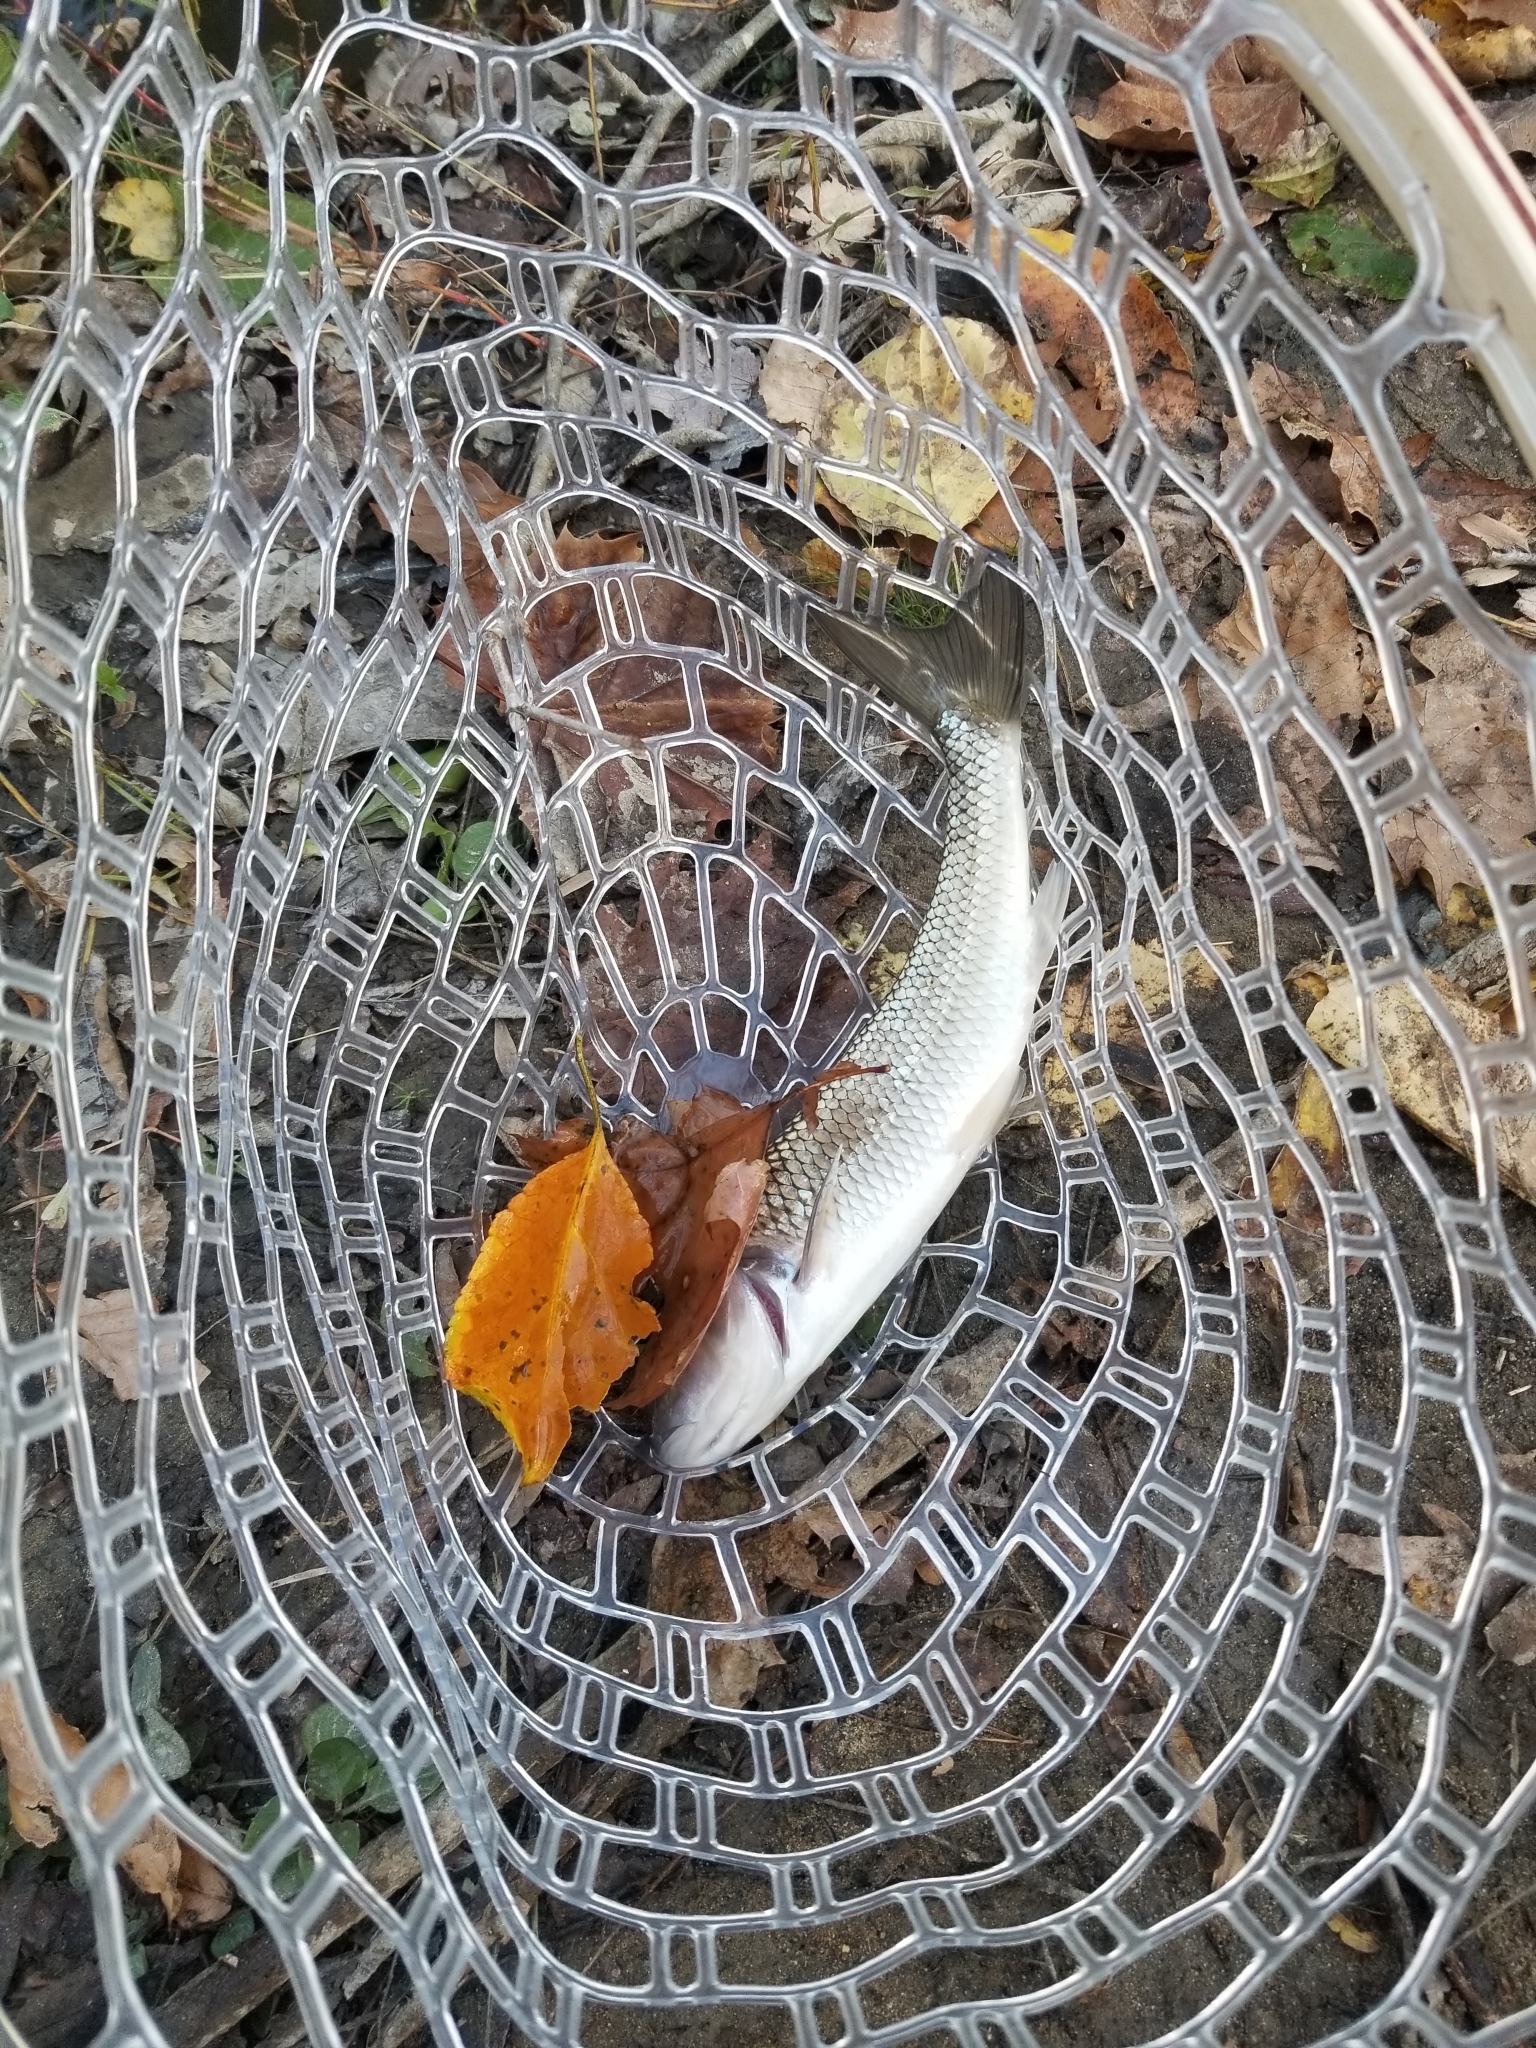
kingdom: Animalia
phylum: Chordata
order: Cypriniformes
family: Cyprinidae
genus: Semotilus
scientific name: Semotilus corporalis
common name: Fallfish
